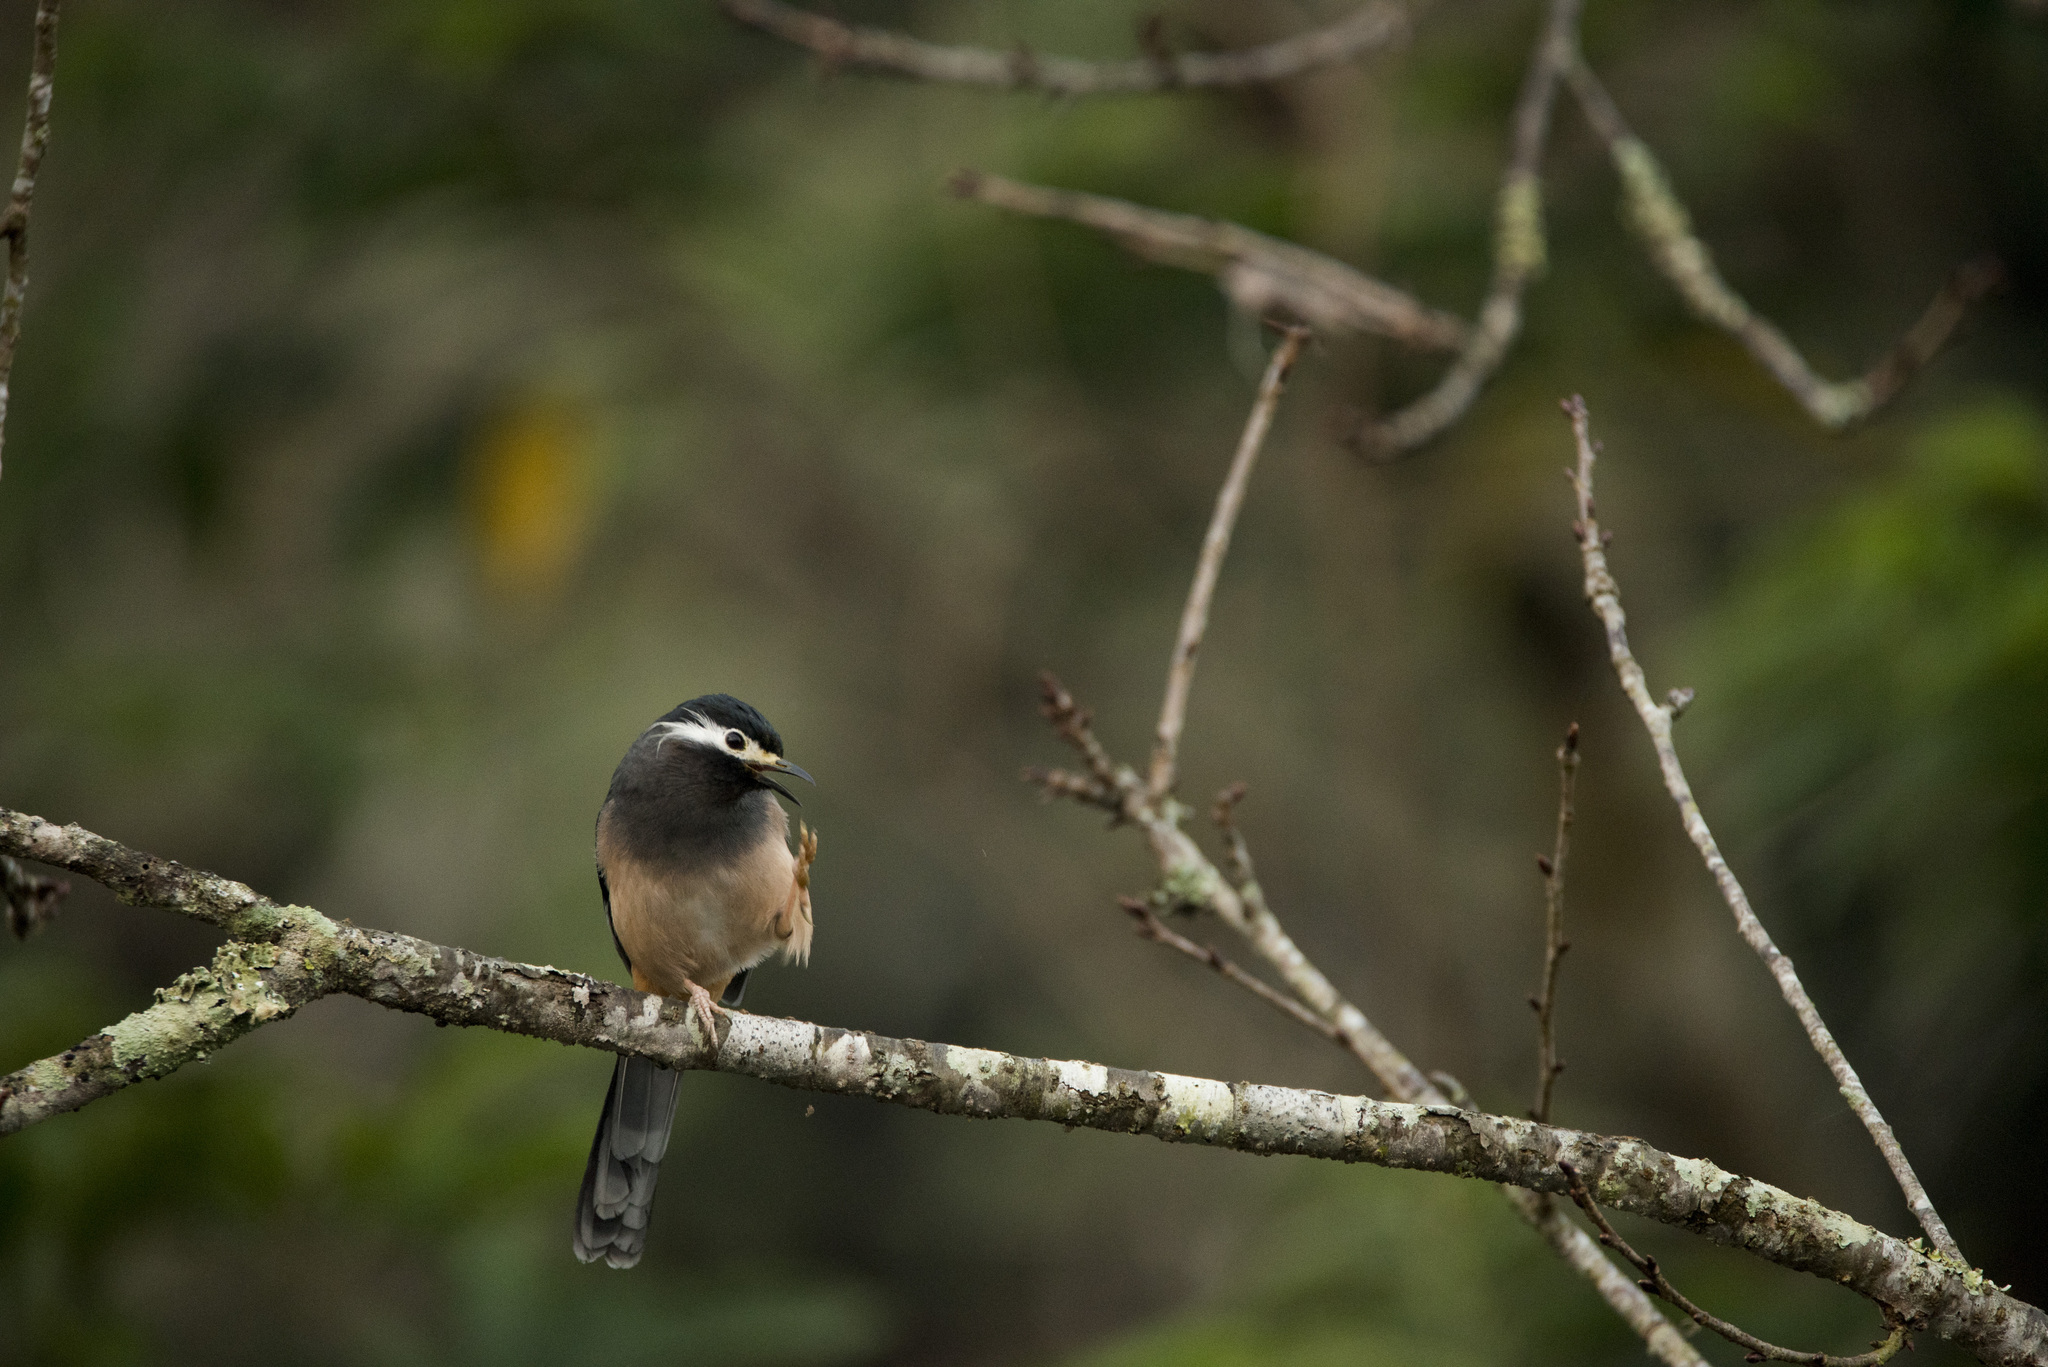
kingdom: Animalia
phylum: Chordata
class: Aves
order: Passeriformes
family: Leiothrichidae
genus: Heterophasia
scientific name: Heterophasia auricularis
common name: White-eared sibia
